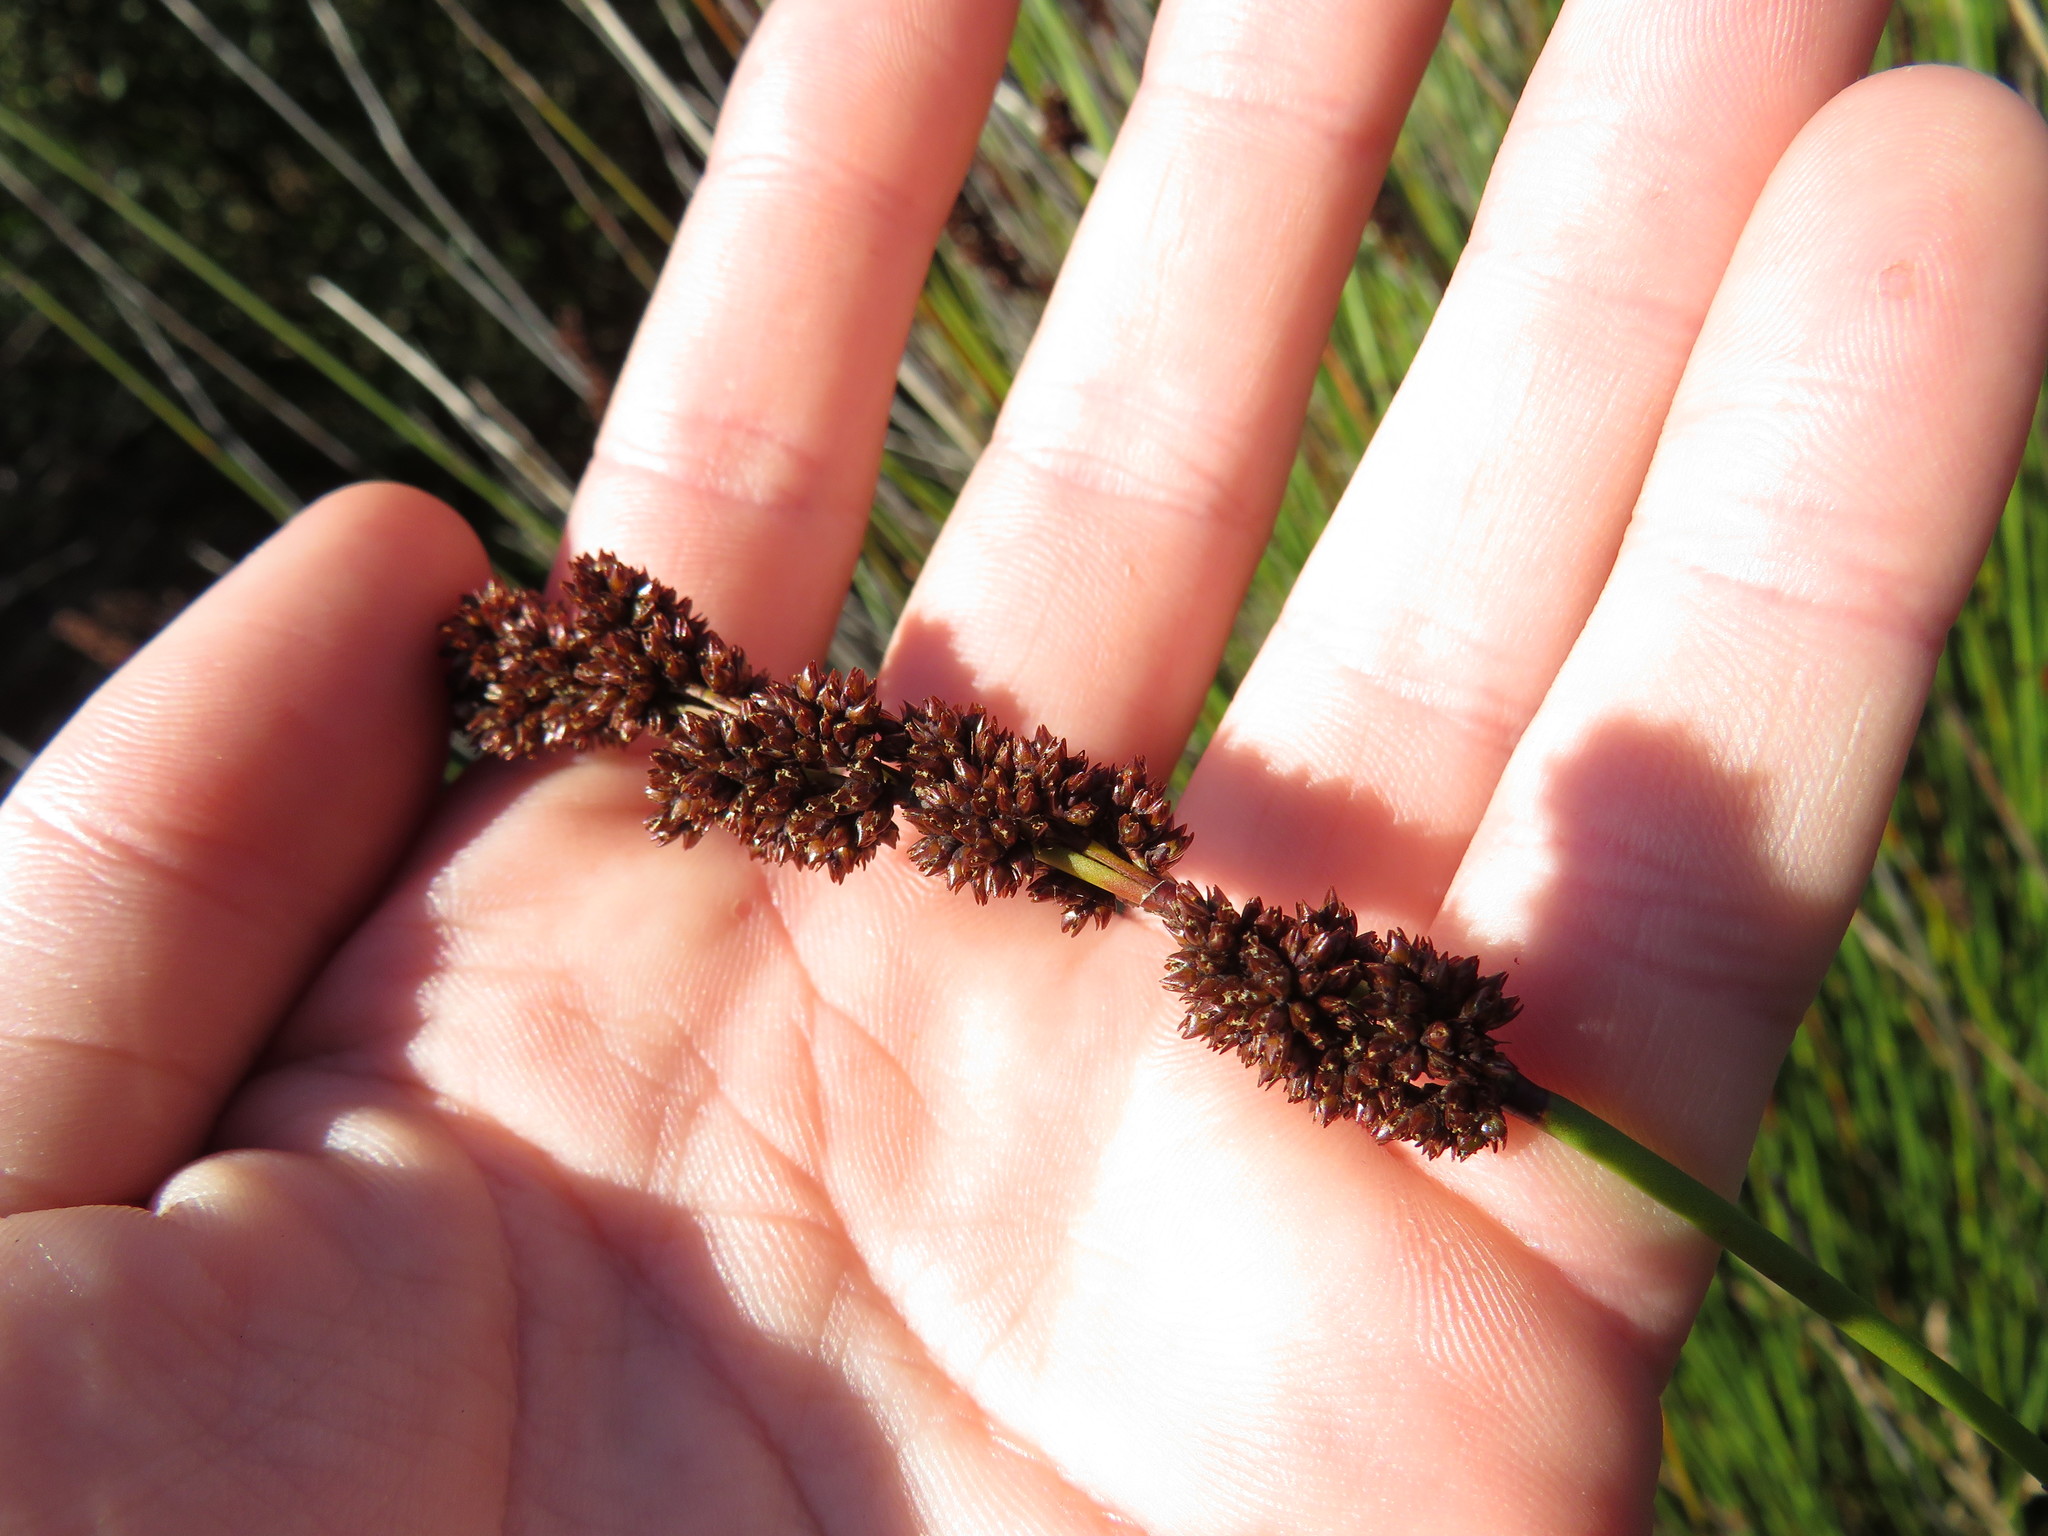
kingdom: Plantae
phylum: Tracheophyta
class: Liliopsida
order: Poales
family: Restionaceae
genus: Elegia
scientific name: Elegia tectorum
